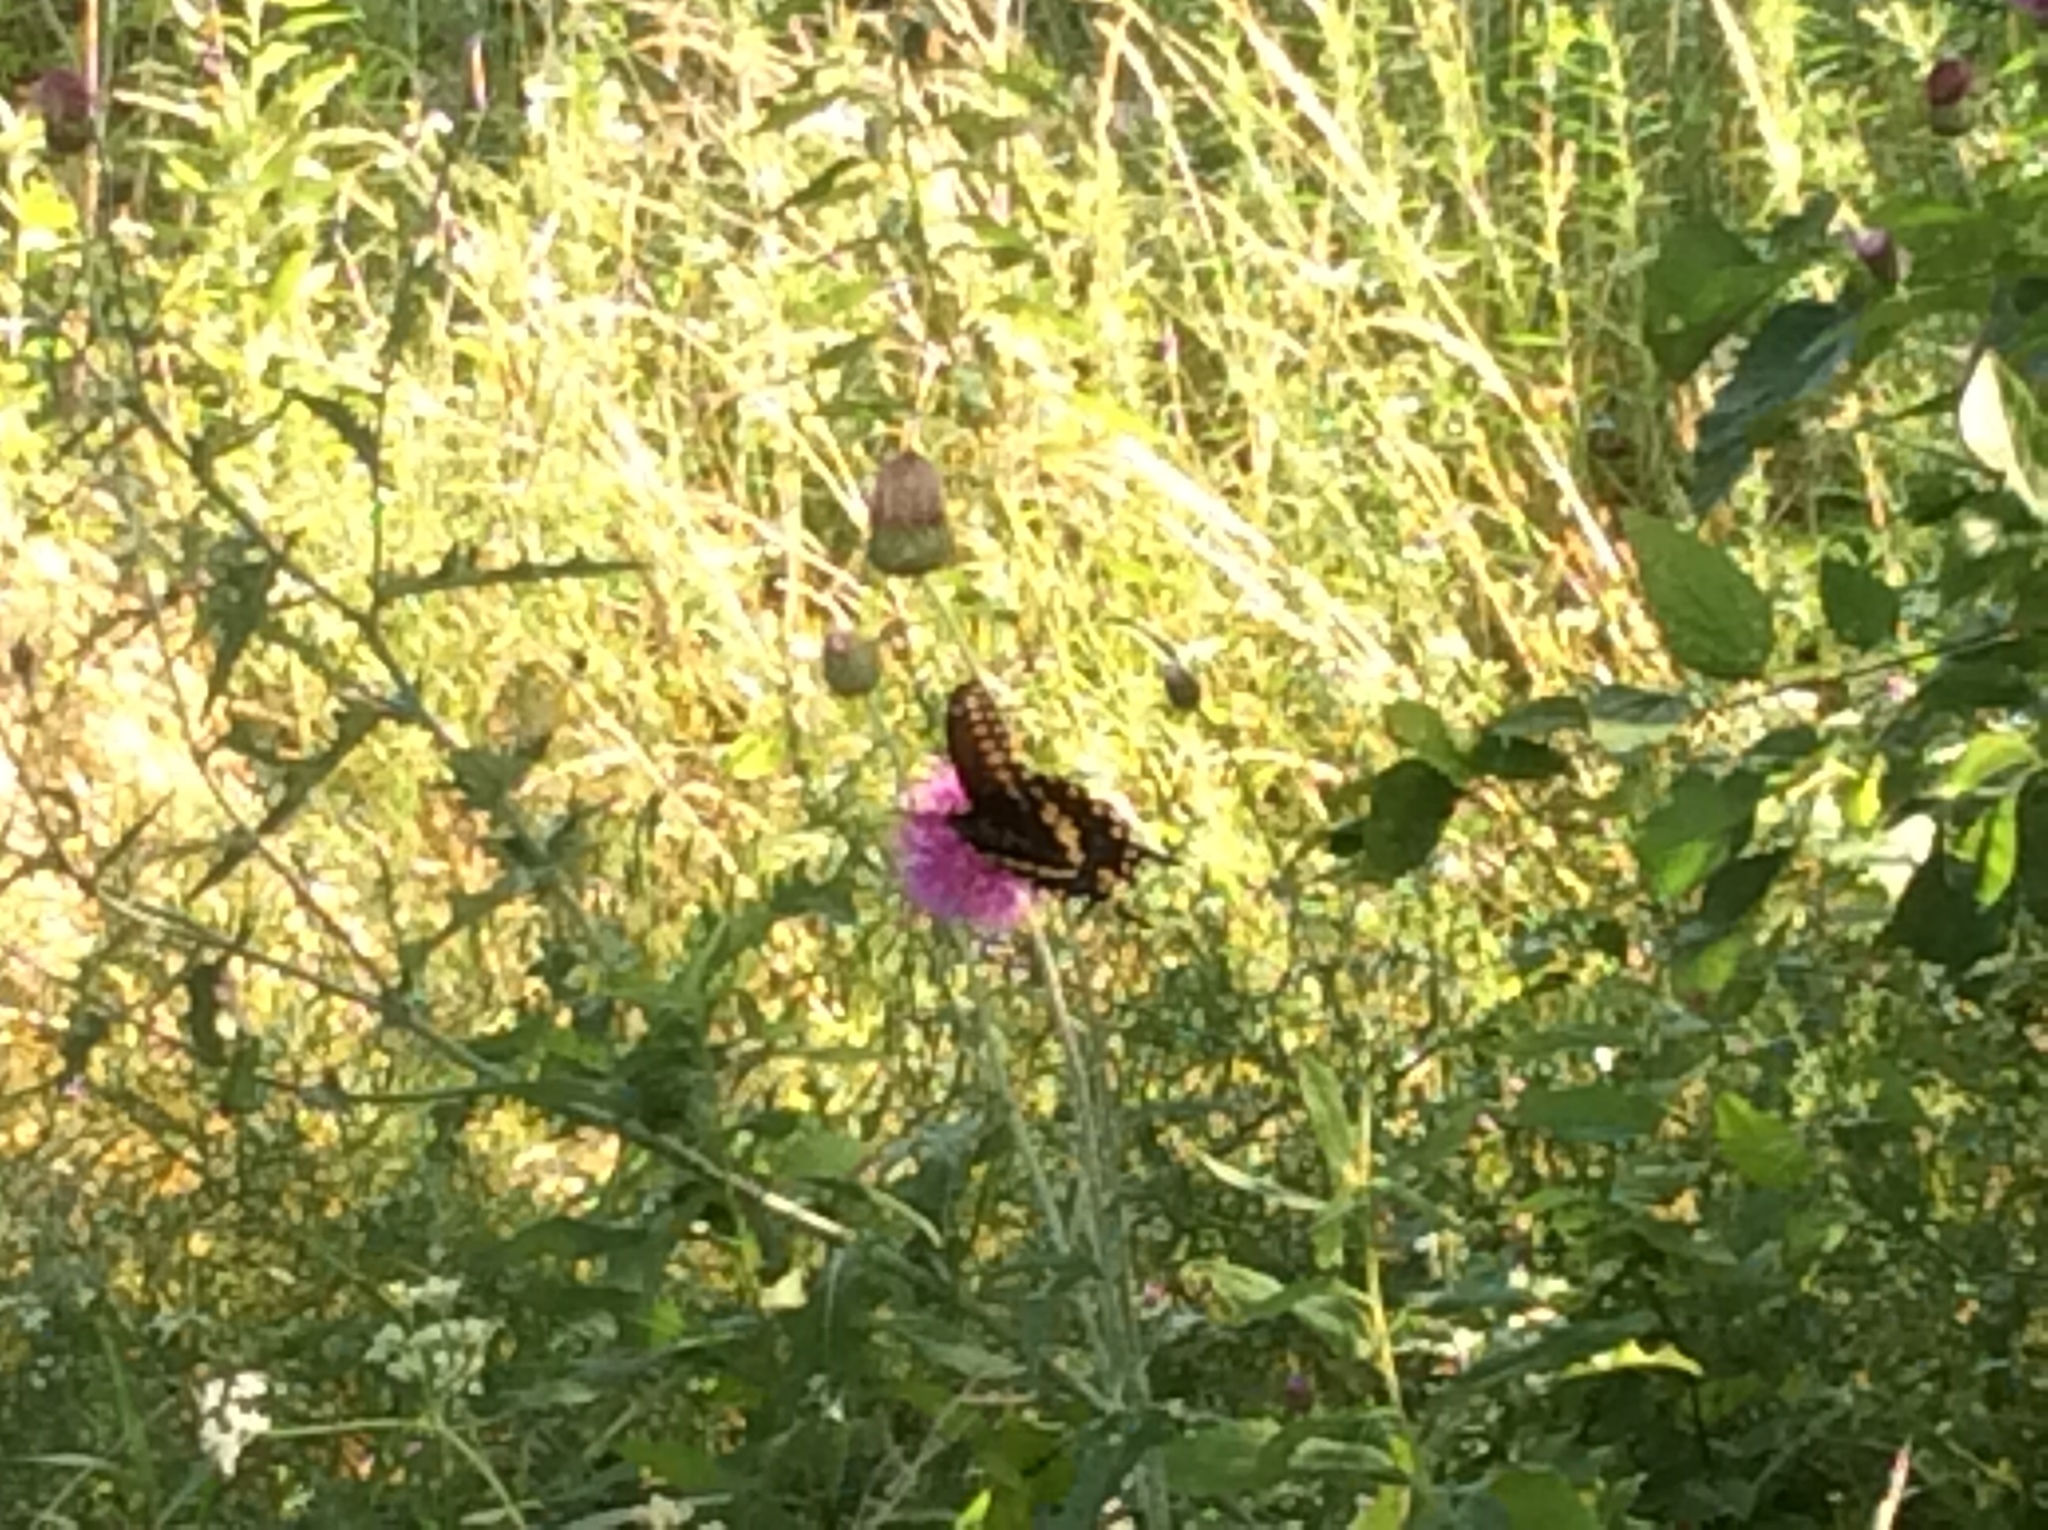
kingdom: Animalia
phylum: Arthropoda
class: Insecta
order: Lepidoptera
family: Papilionidae
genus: Papilio
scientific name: Papilio polyxenes
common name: Black swallowtail
